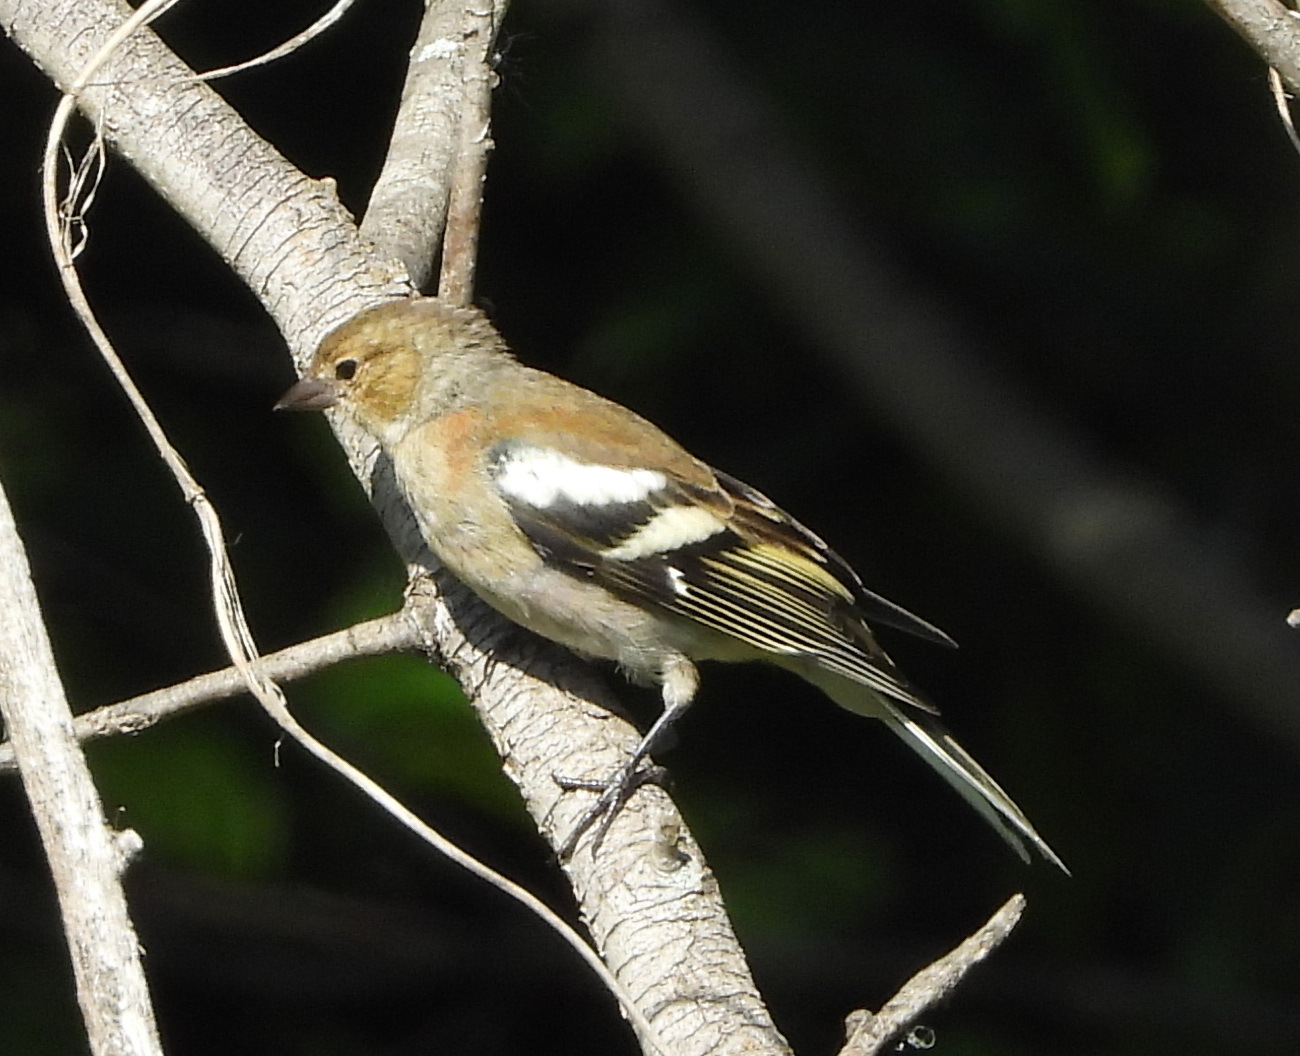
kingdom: Animalia
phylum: Chordata
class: Aves
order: Passeriformes
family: Fringillidae
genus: Fringilla
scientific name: Fringilla coelebs
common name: Common chaffinch
